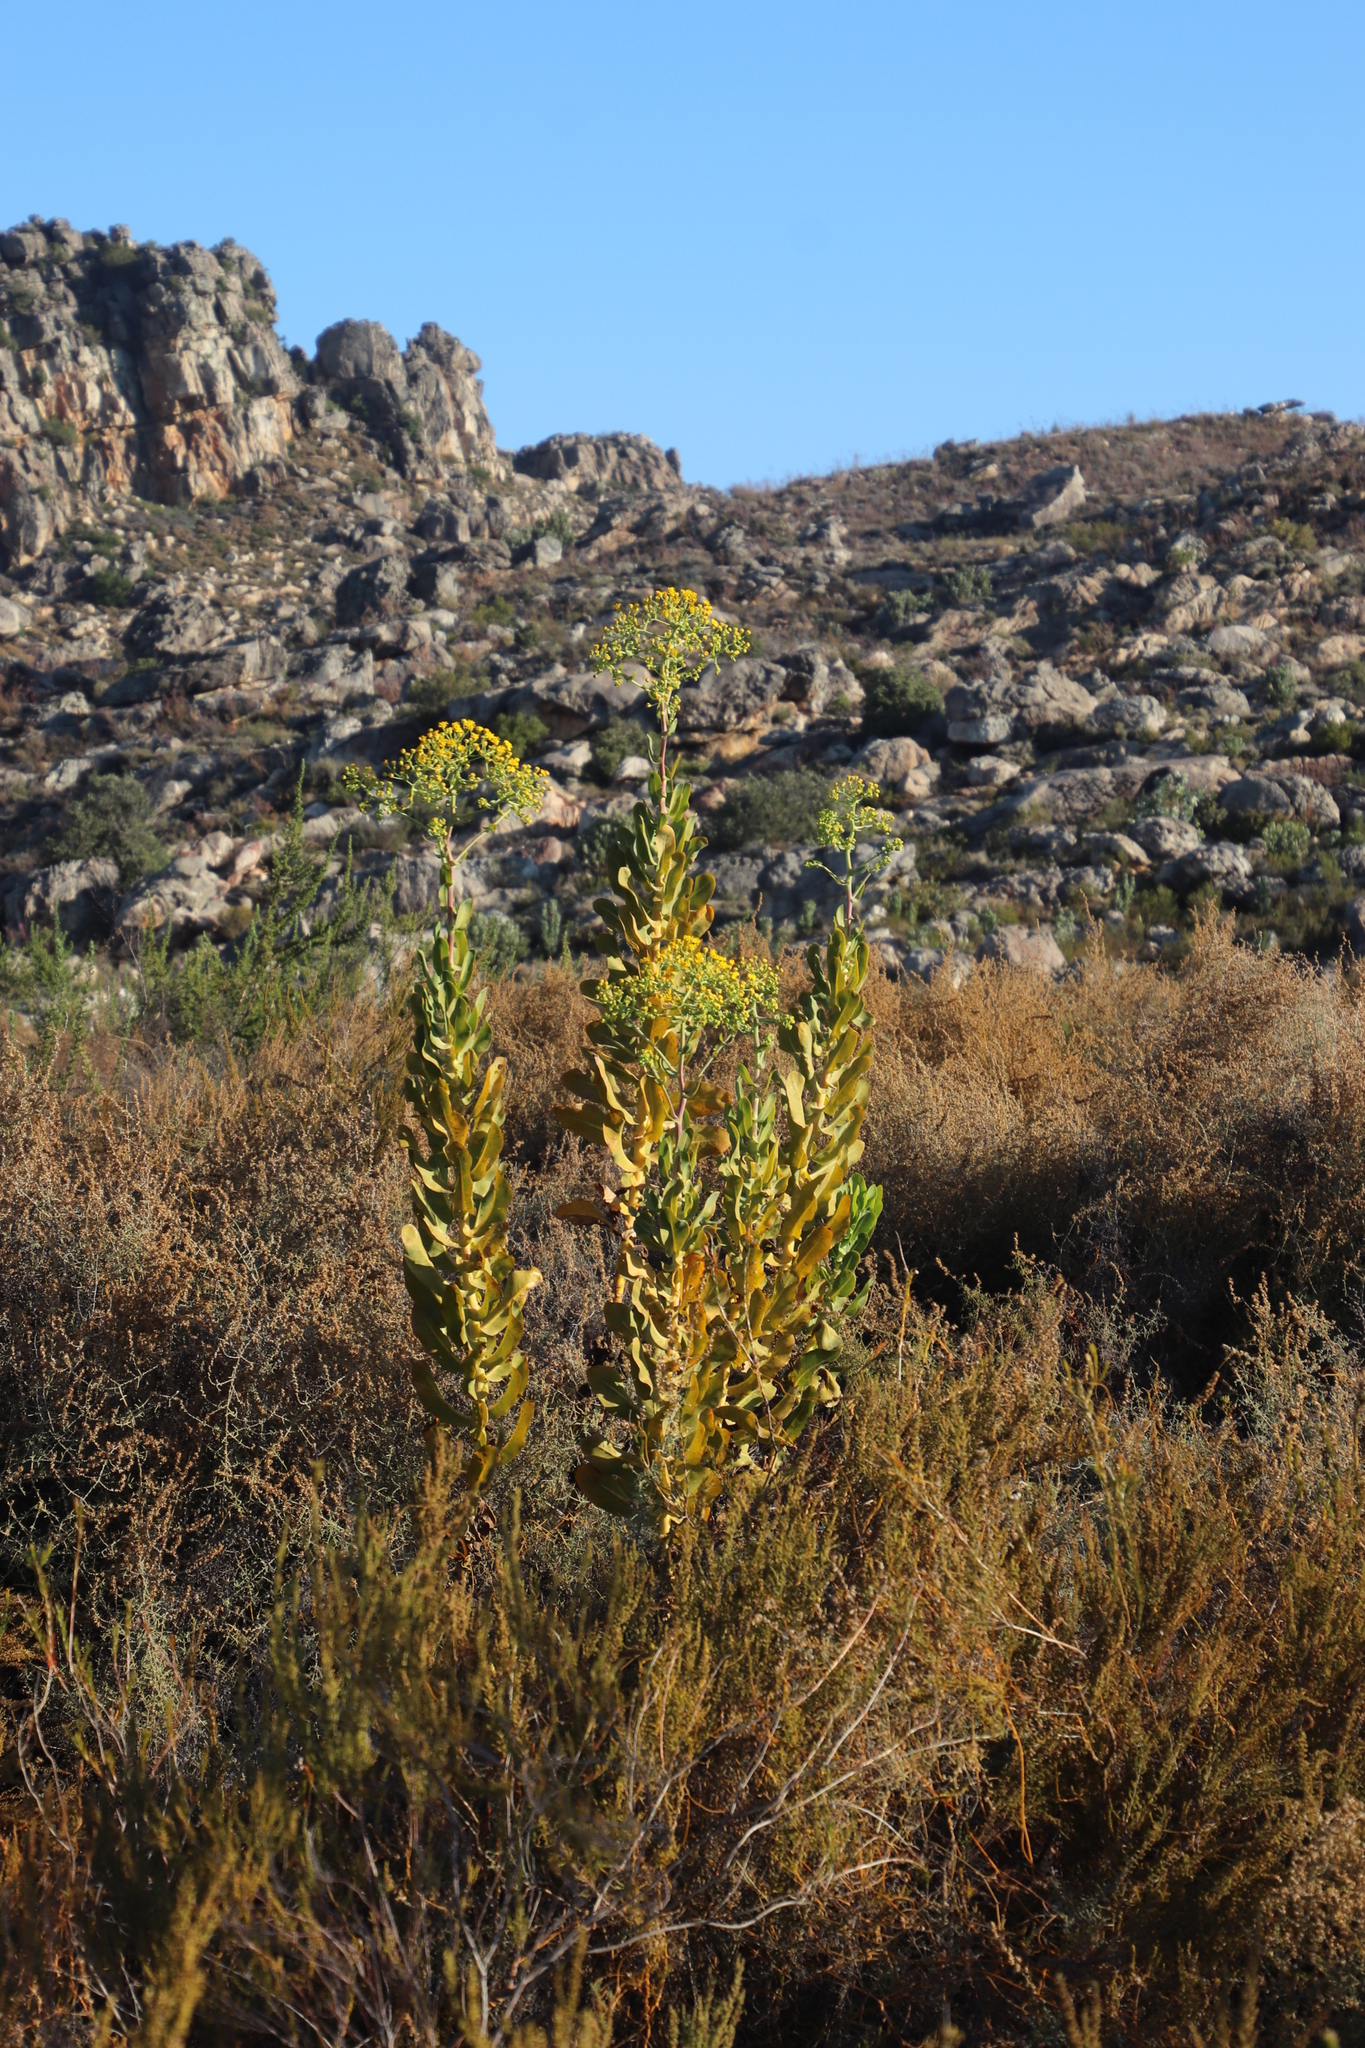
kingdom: Plantae
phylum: Tracheophyta
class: Magnoliopsida
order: Asterales
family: Asteraceae
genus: Othonna
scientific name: Othonna parviflora
